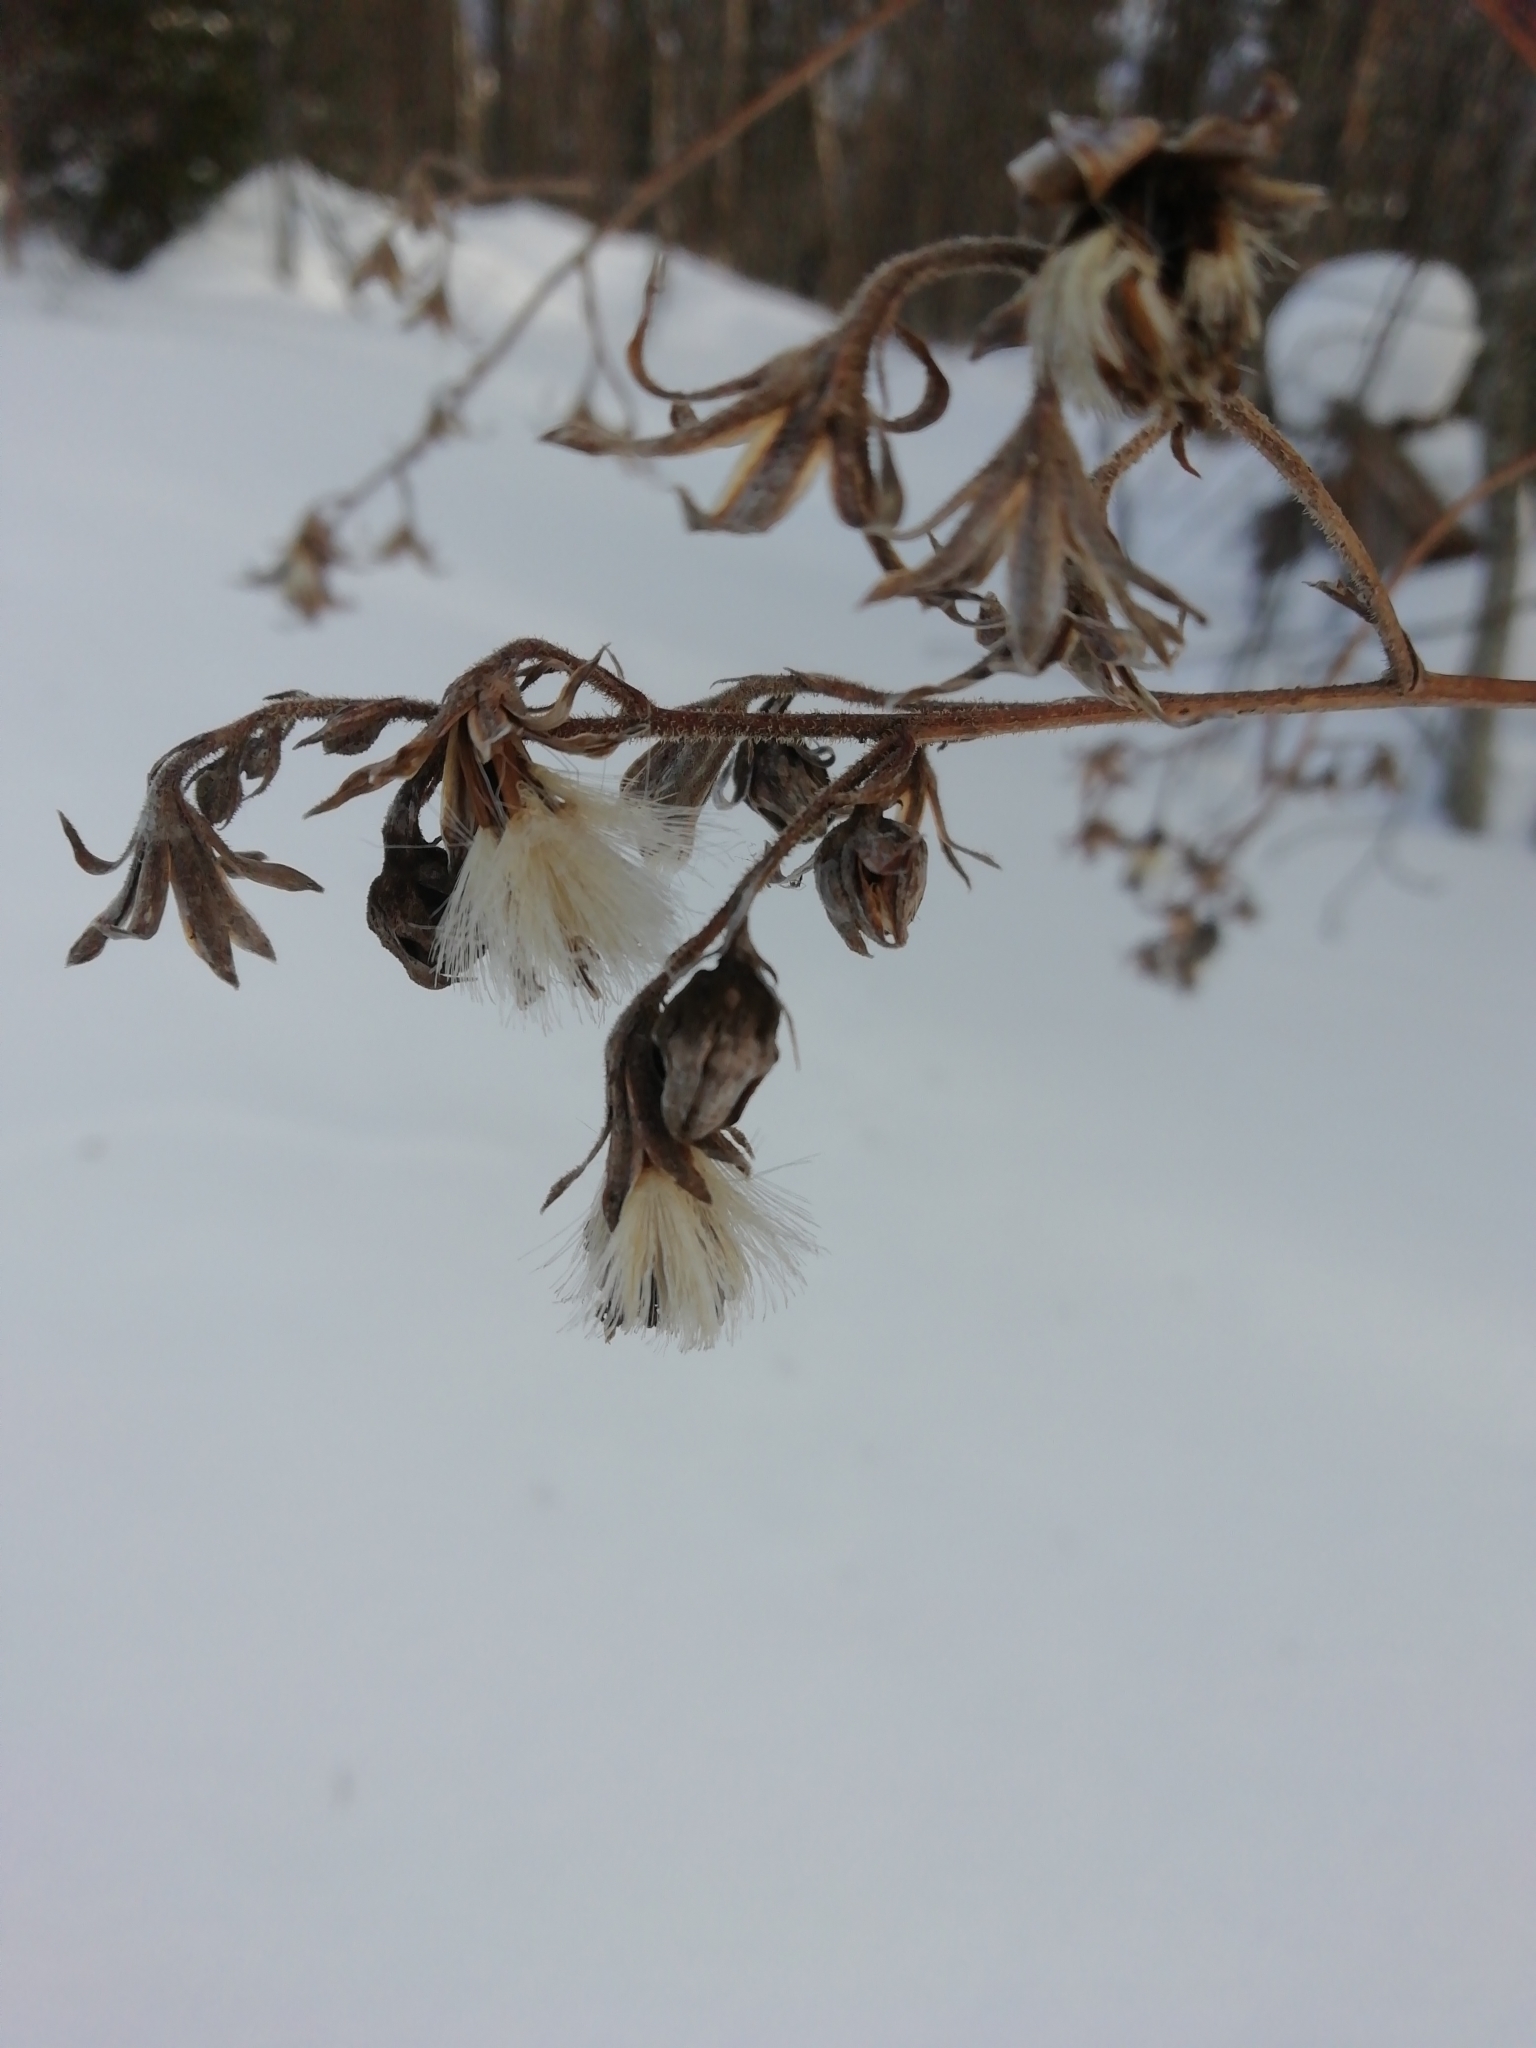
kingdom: Plantae
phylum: Tracheophyta
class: Magnoliopsida
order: Asterales
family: Asteraceae
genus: Parasenecio
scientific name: Parasenecio hastatus
